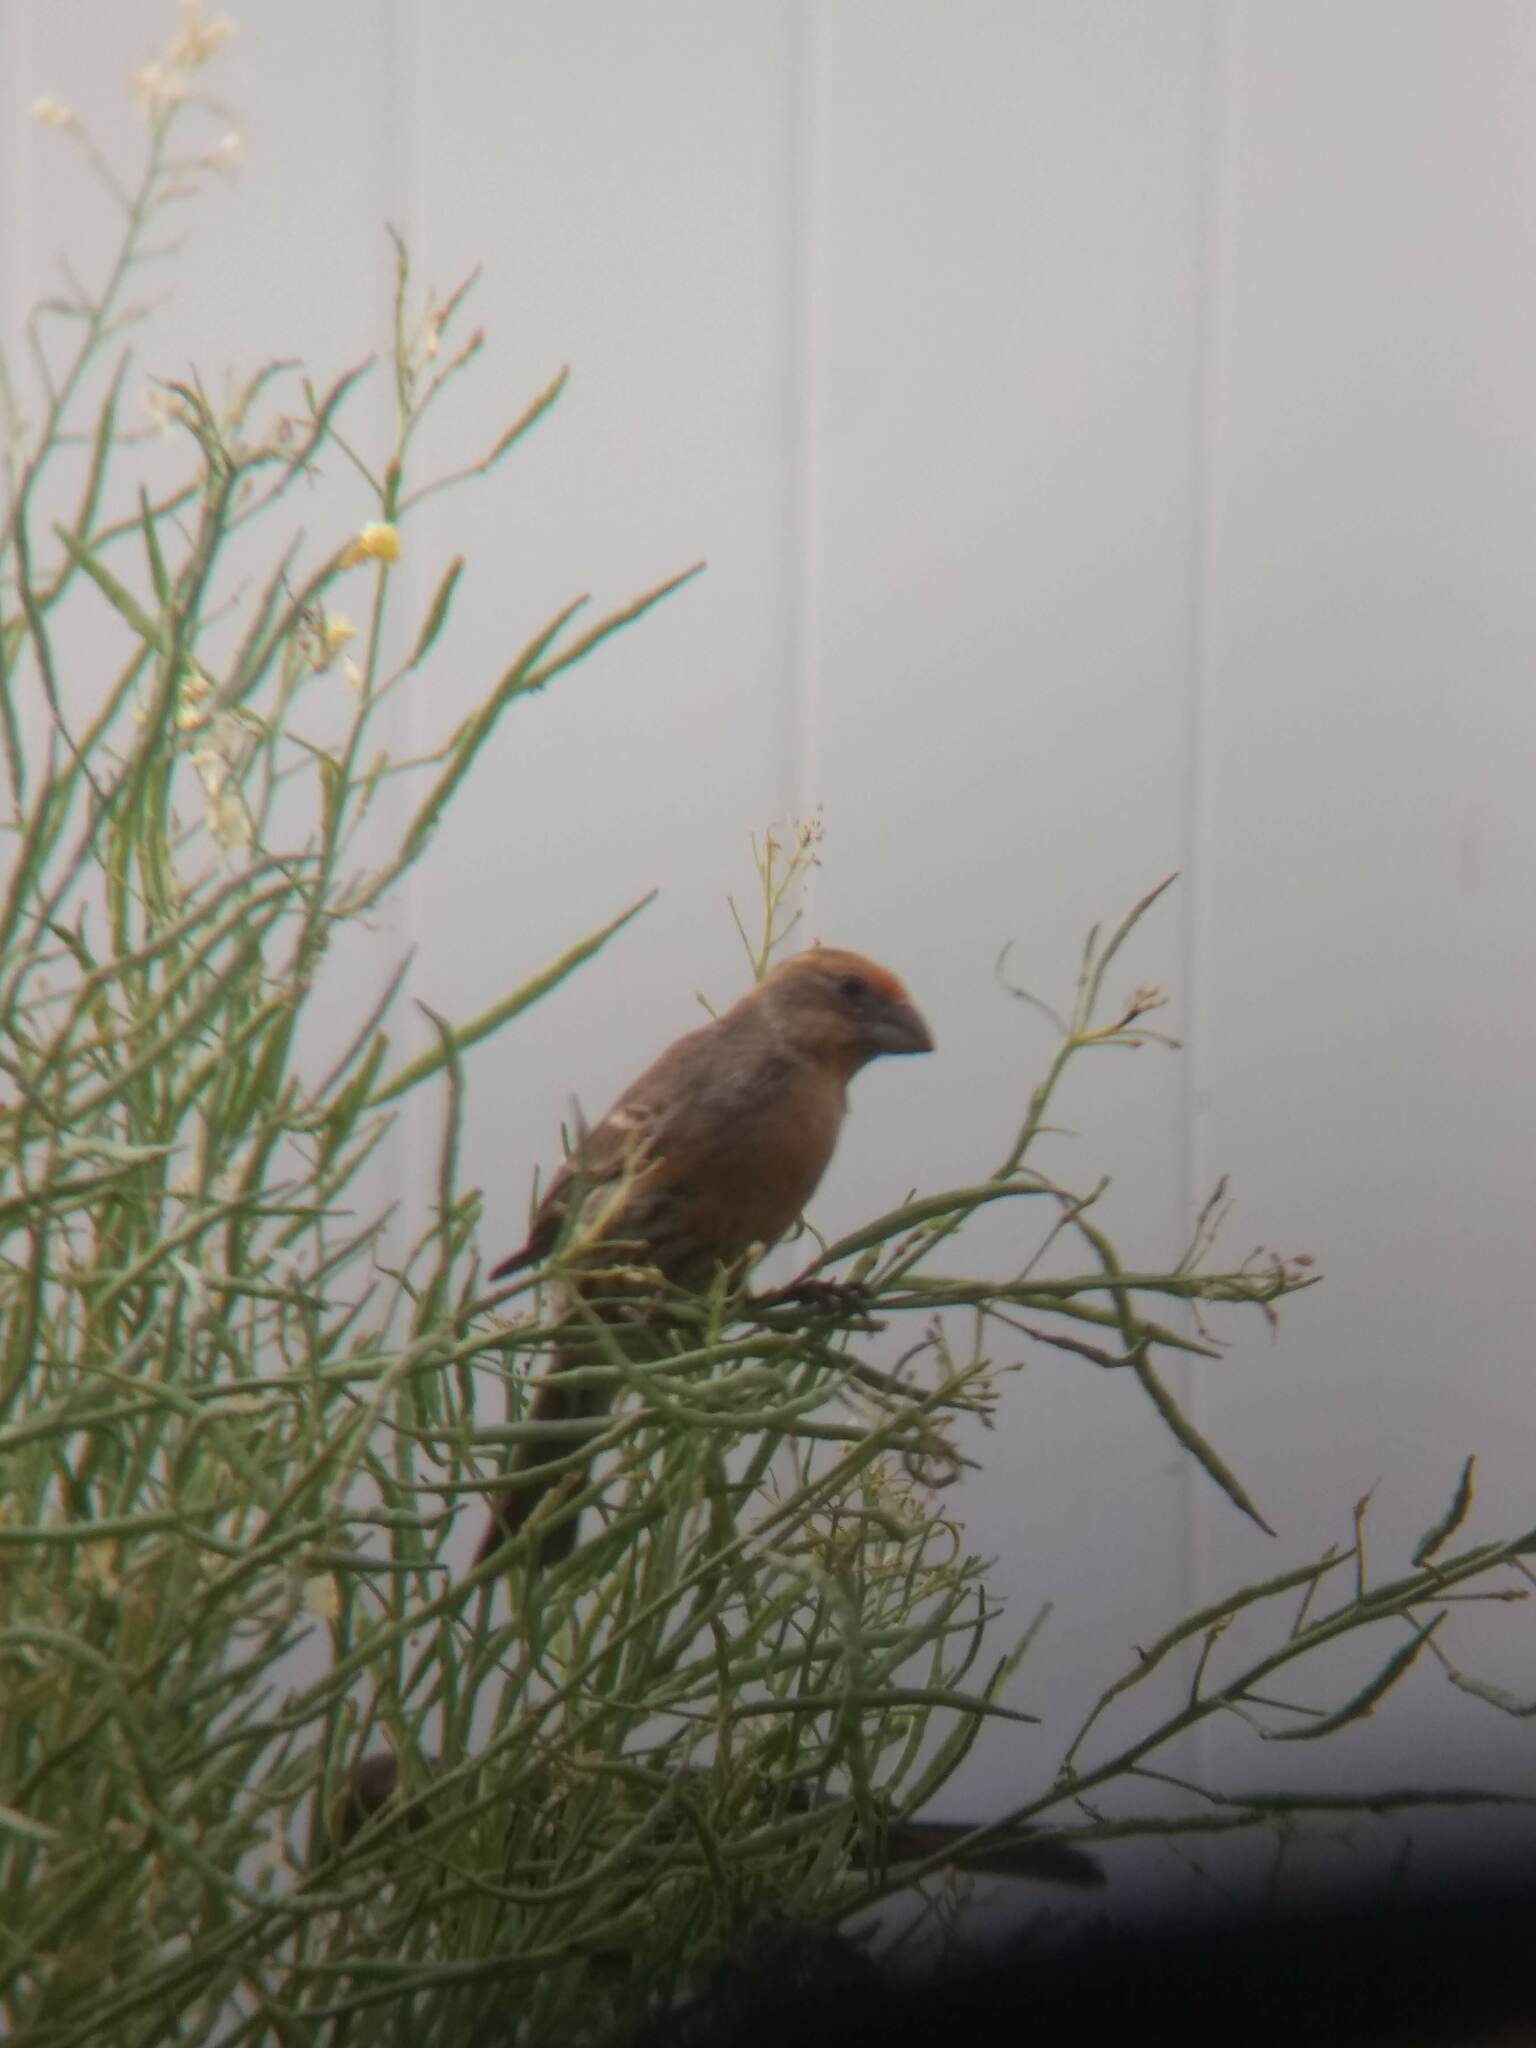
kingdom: Animalia
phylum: Chordata
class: Aves
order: Passeriformes
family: Fringillidae
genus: Haemorhous
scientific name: Haemorhous mexicanus
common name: House finch
